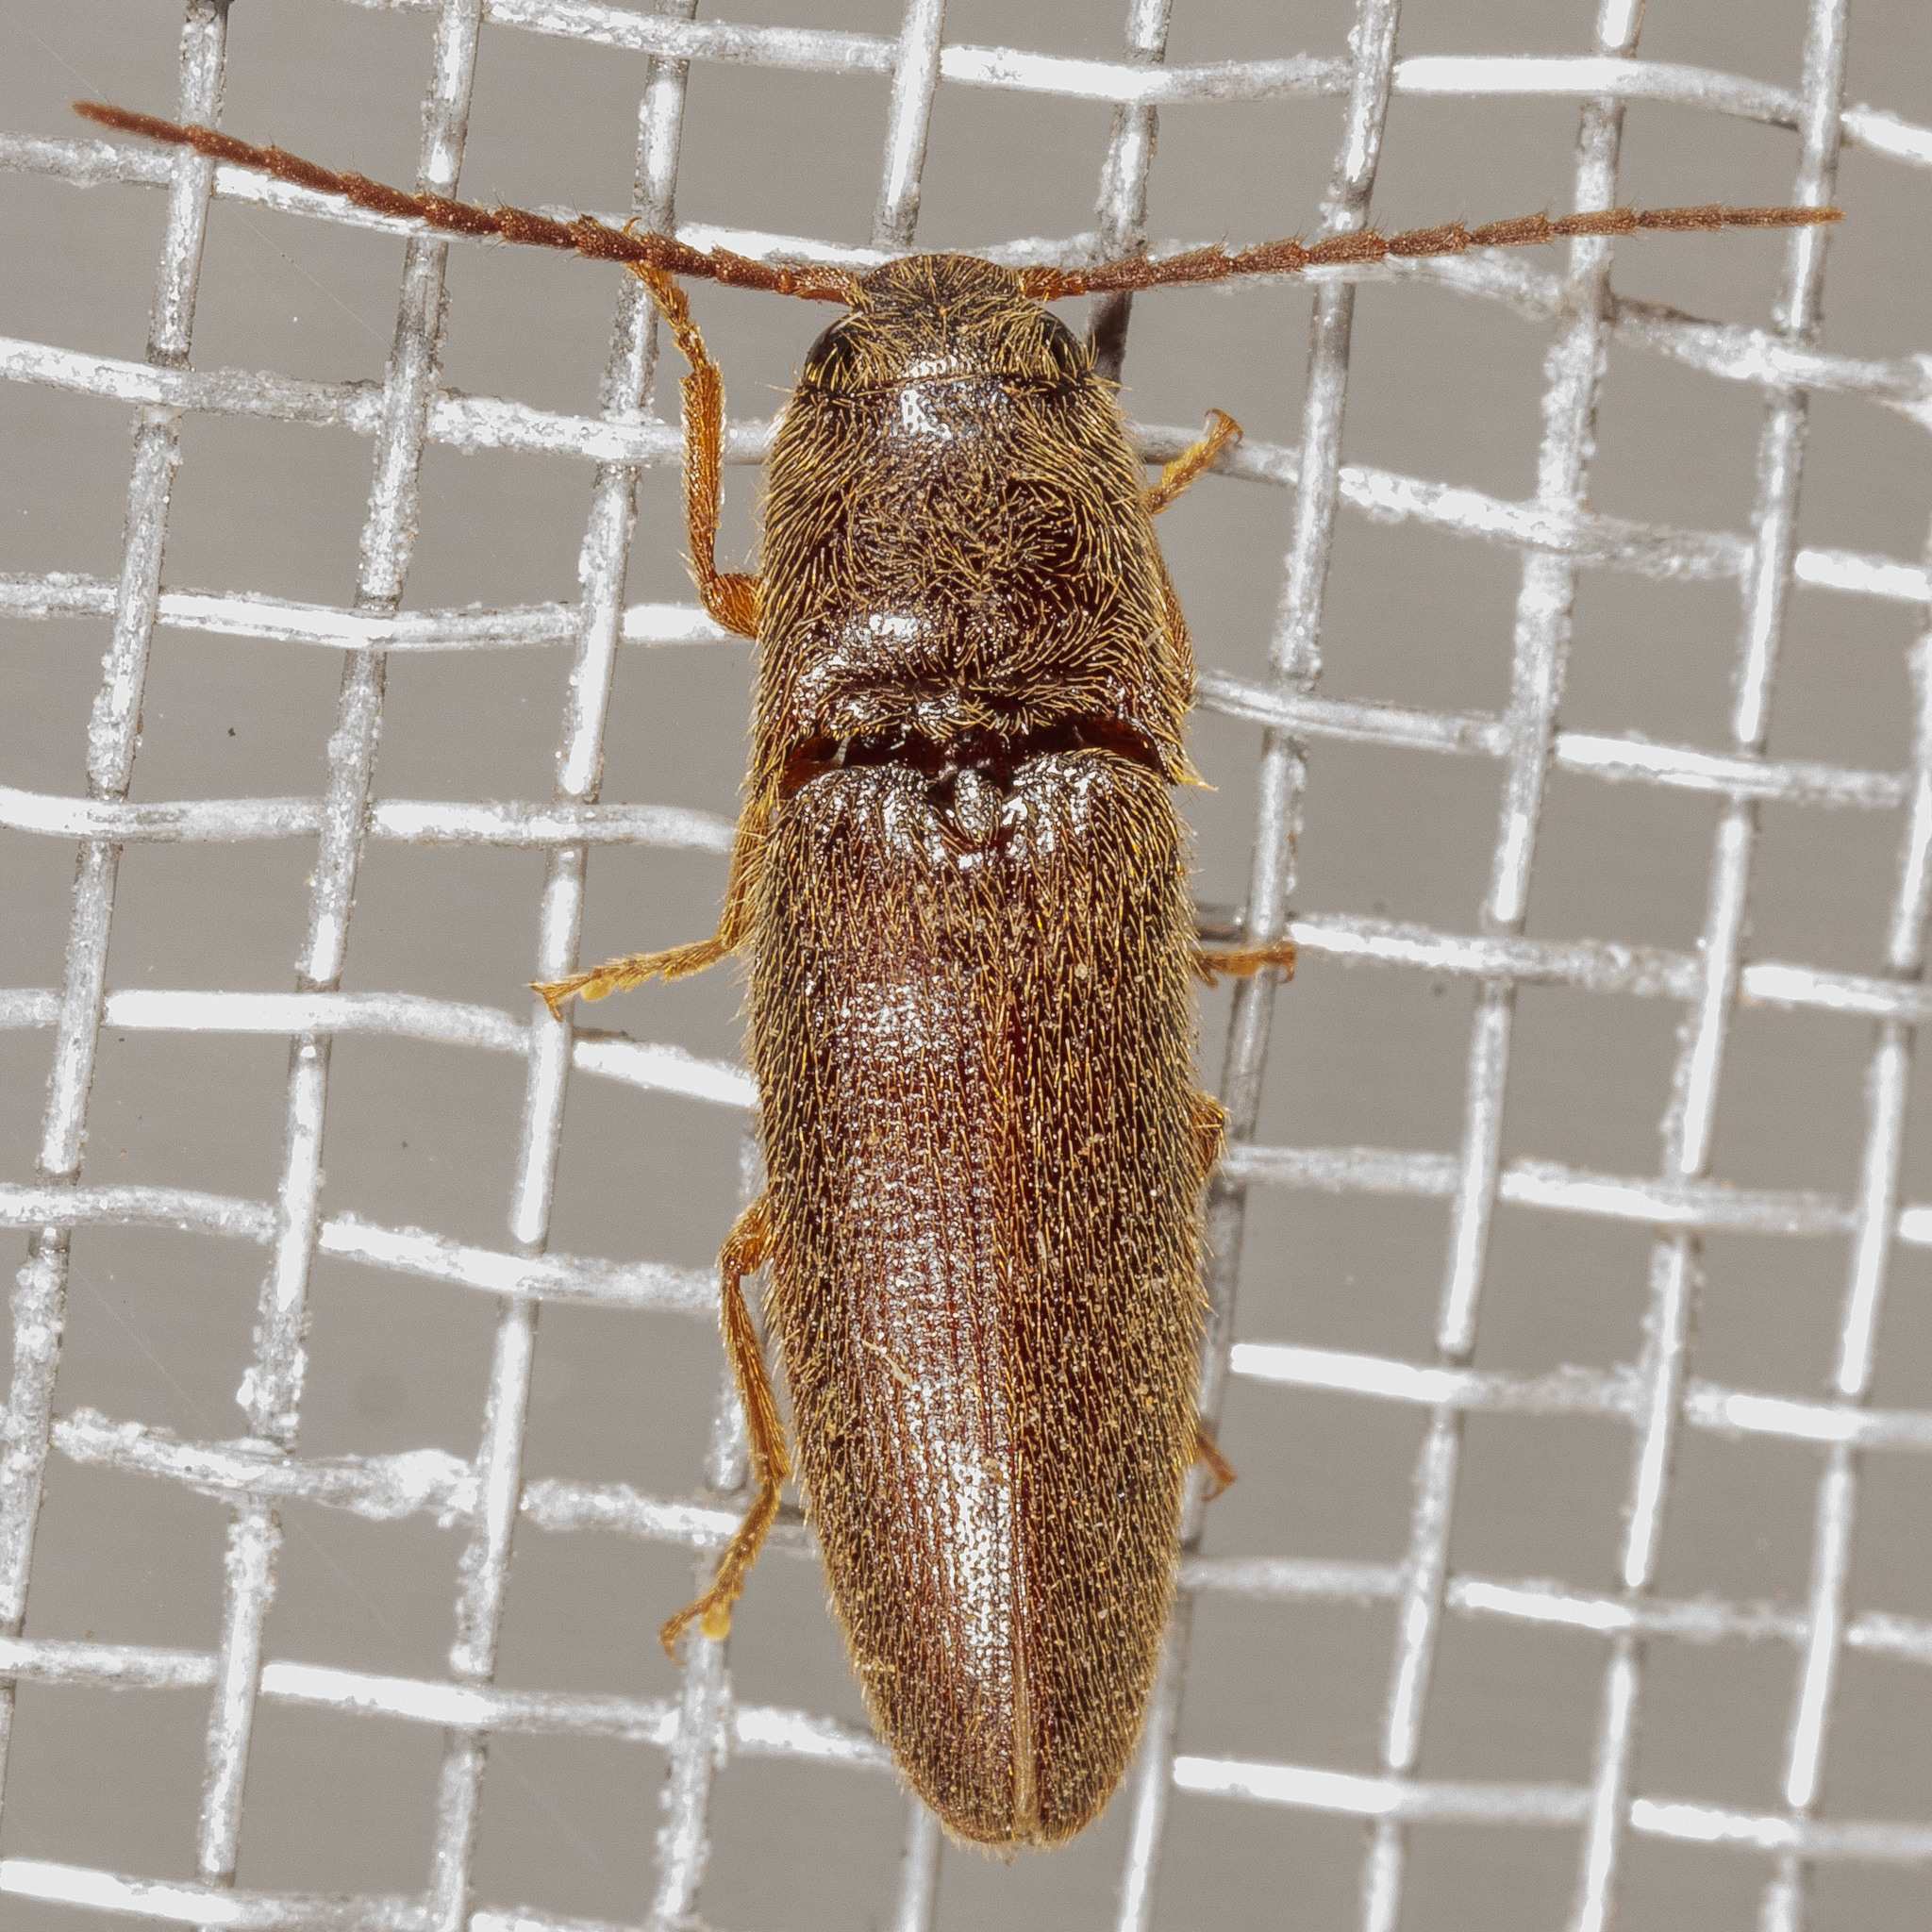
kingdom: Animalia
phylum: Arthropoda
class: Insecta
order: Coleoptera
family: Elateridae
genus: Dipropus
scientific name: Dipropus
